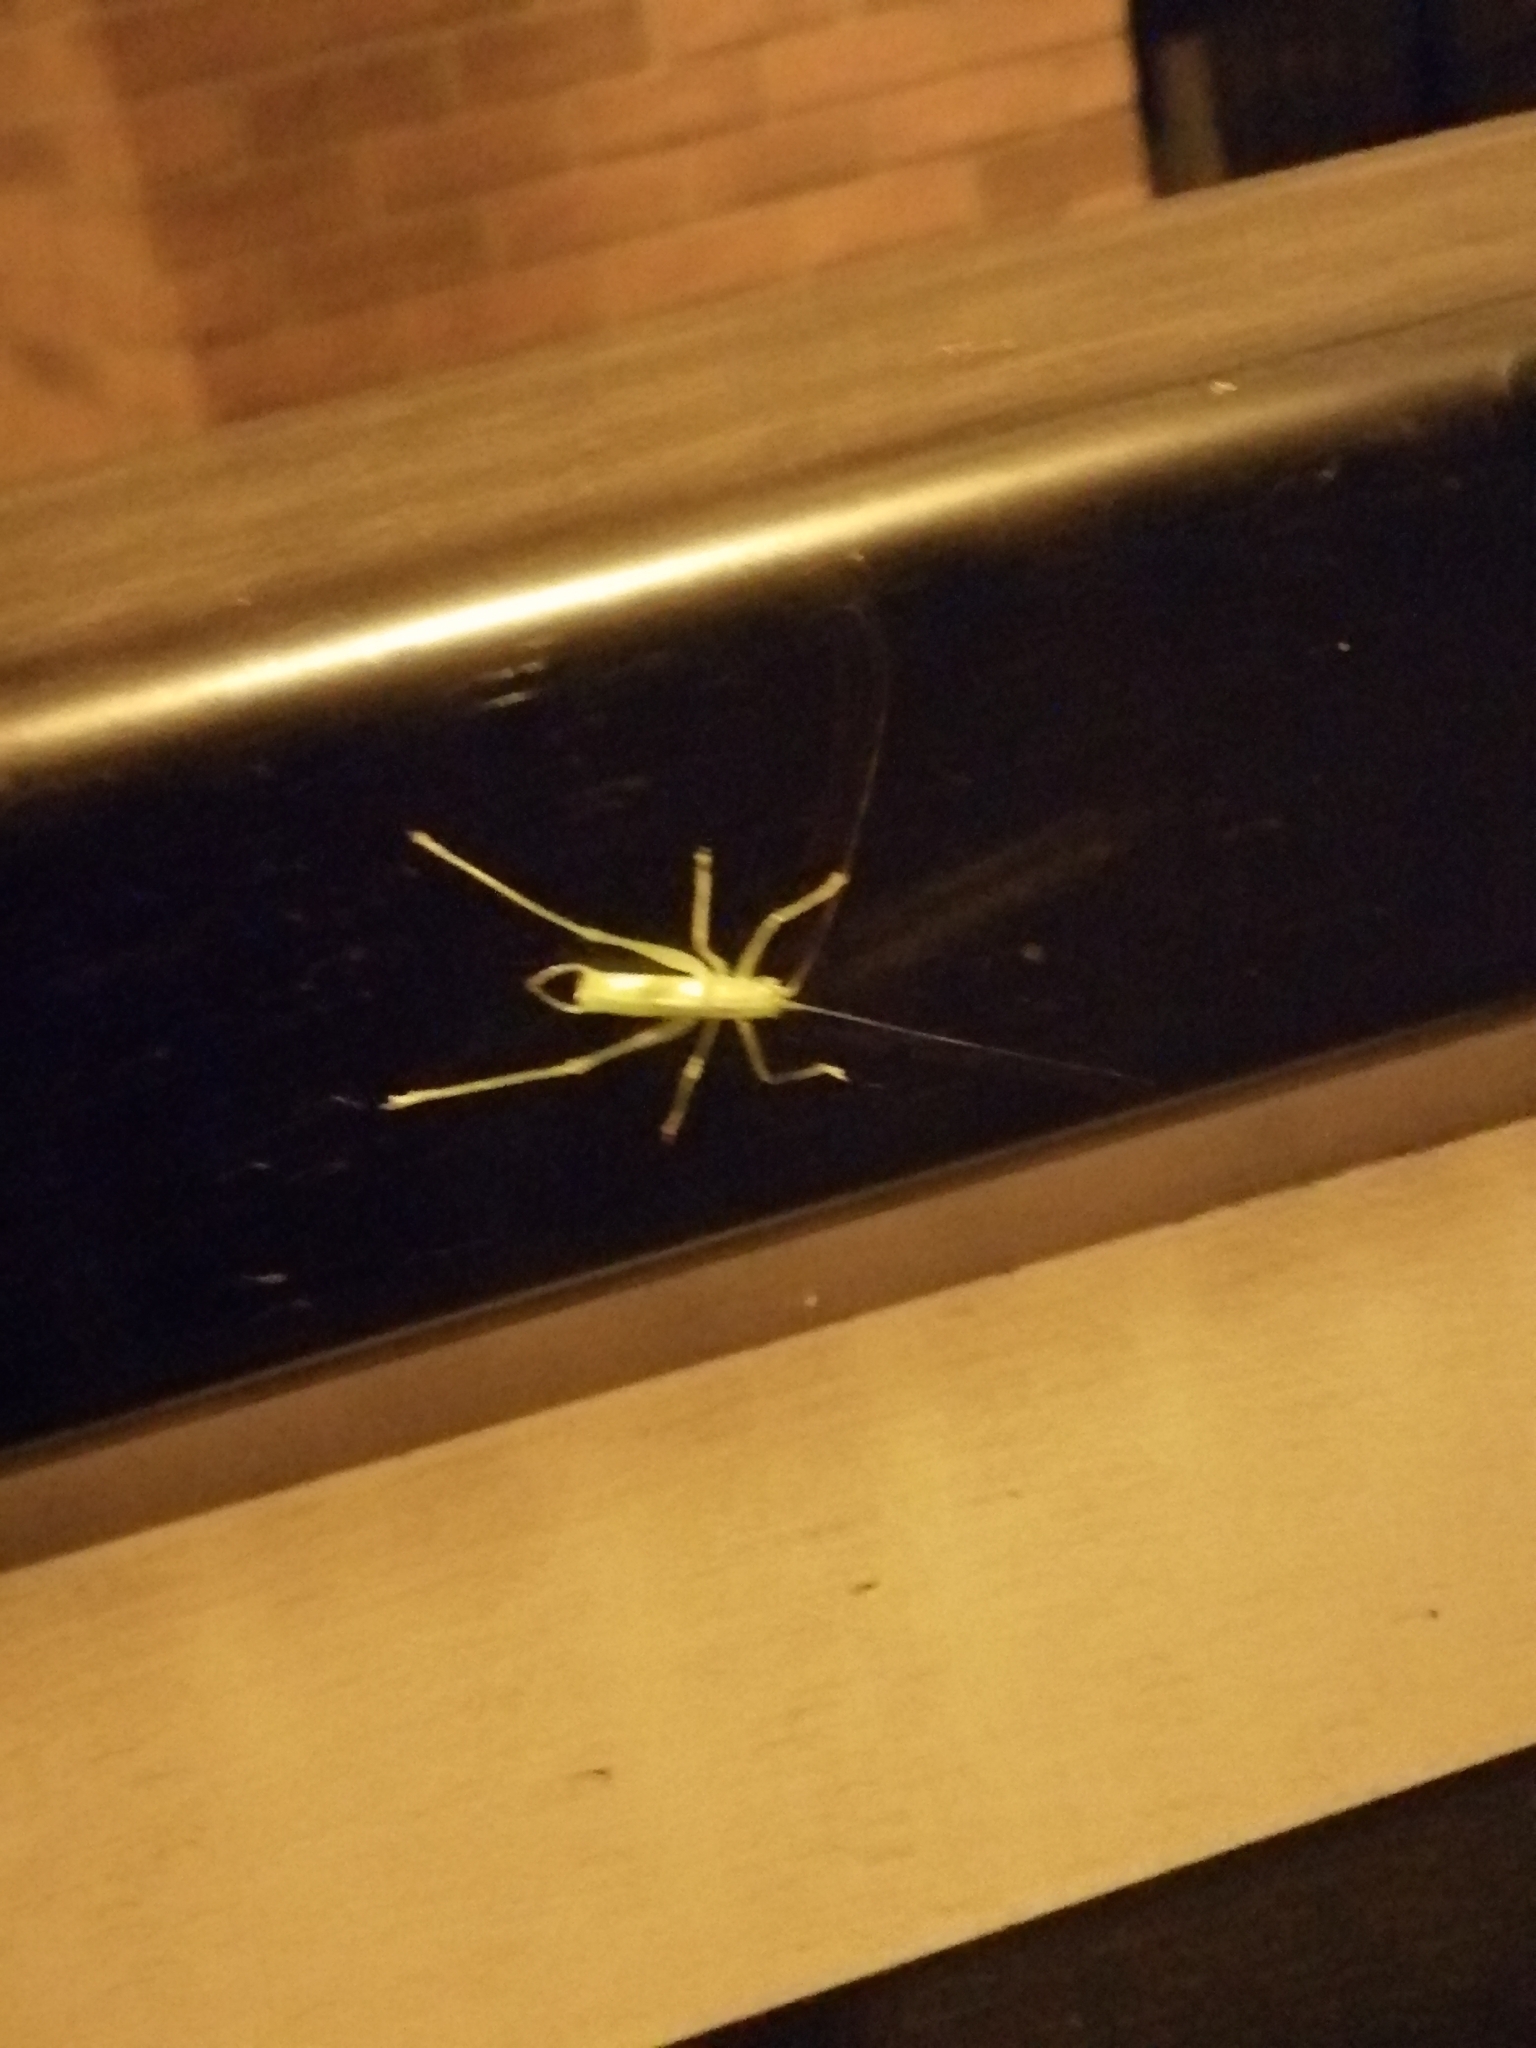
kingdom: Animalia
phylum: Arthropoda
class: Insecta
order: Orthoptera
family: Tettigoniidae
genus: Meconema
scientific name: Meconema meridionale
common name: Southern oak bush-cricket
